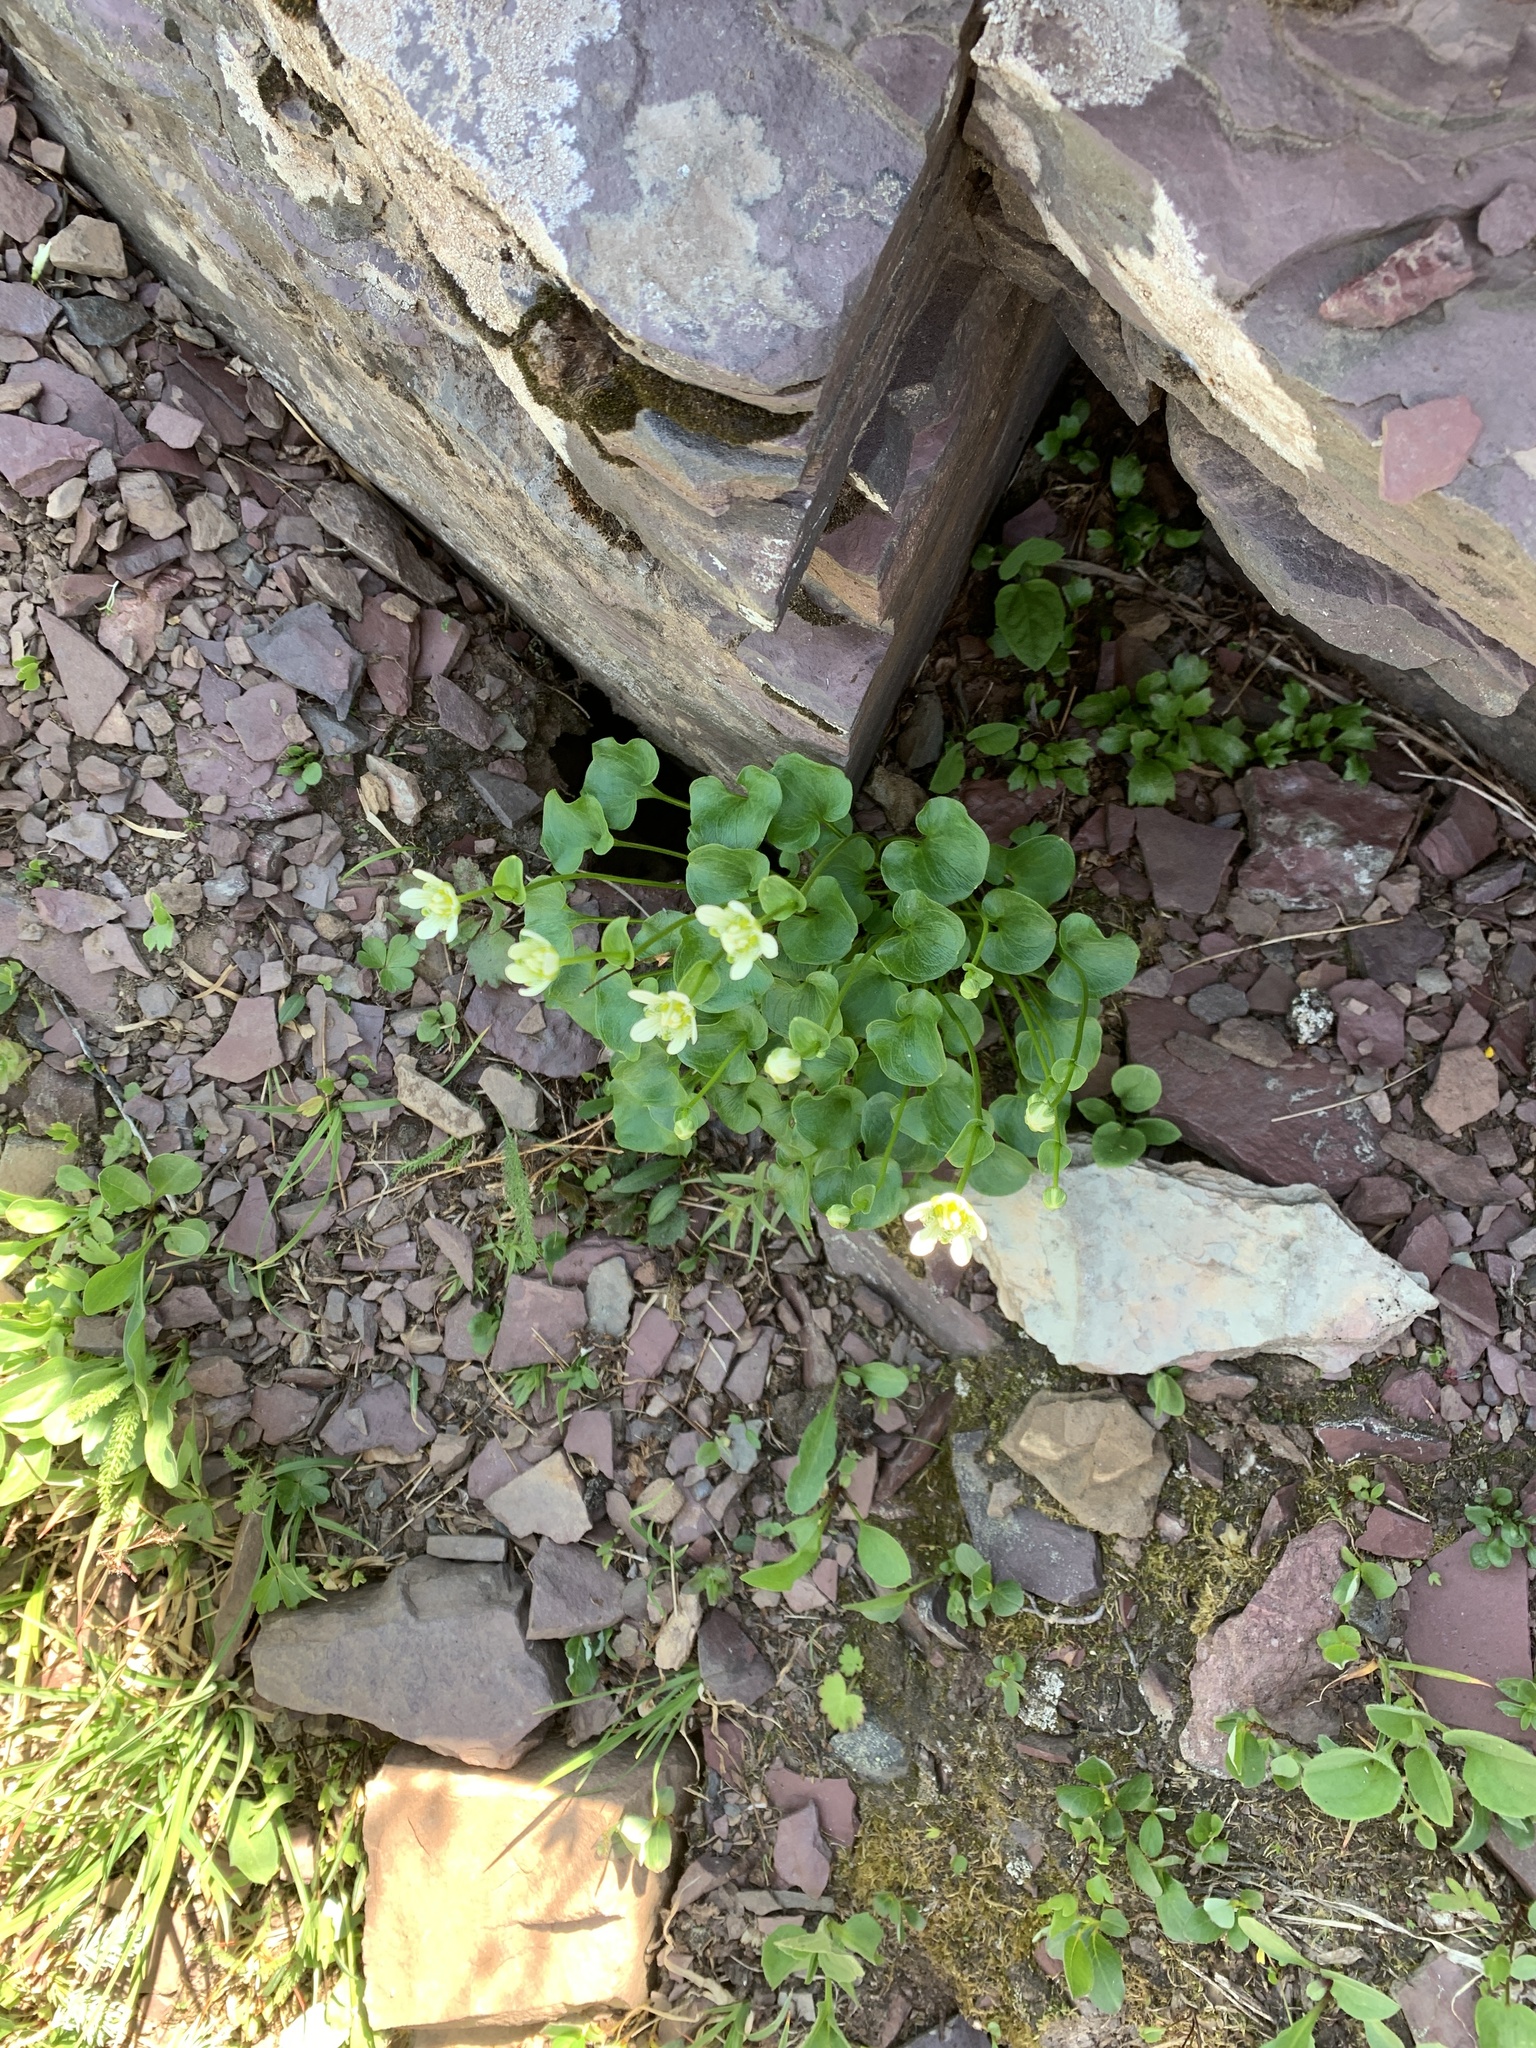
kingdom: Plantae
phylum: Tracheophyta
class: Magnoliopsida
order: Boraginales
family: Hydrophyllaceae
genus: Romanzoffia
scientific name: Romanzoffia sitchensis
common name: Sitka mistmaid
